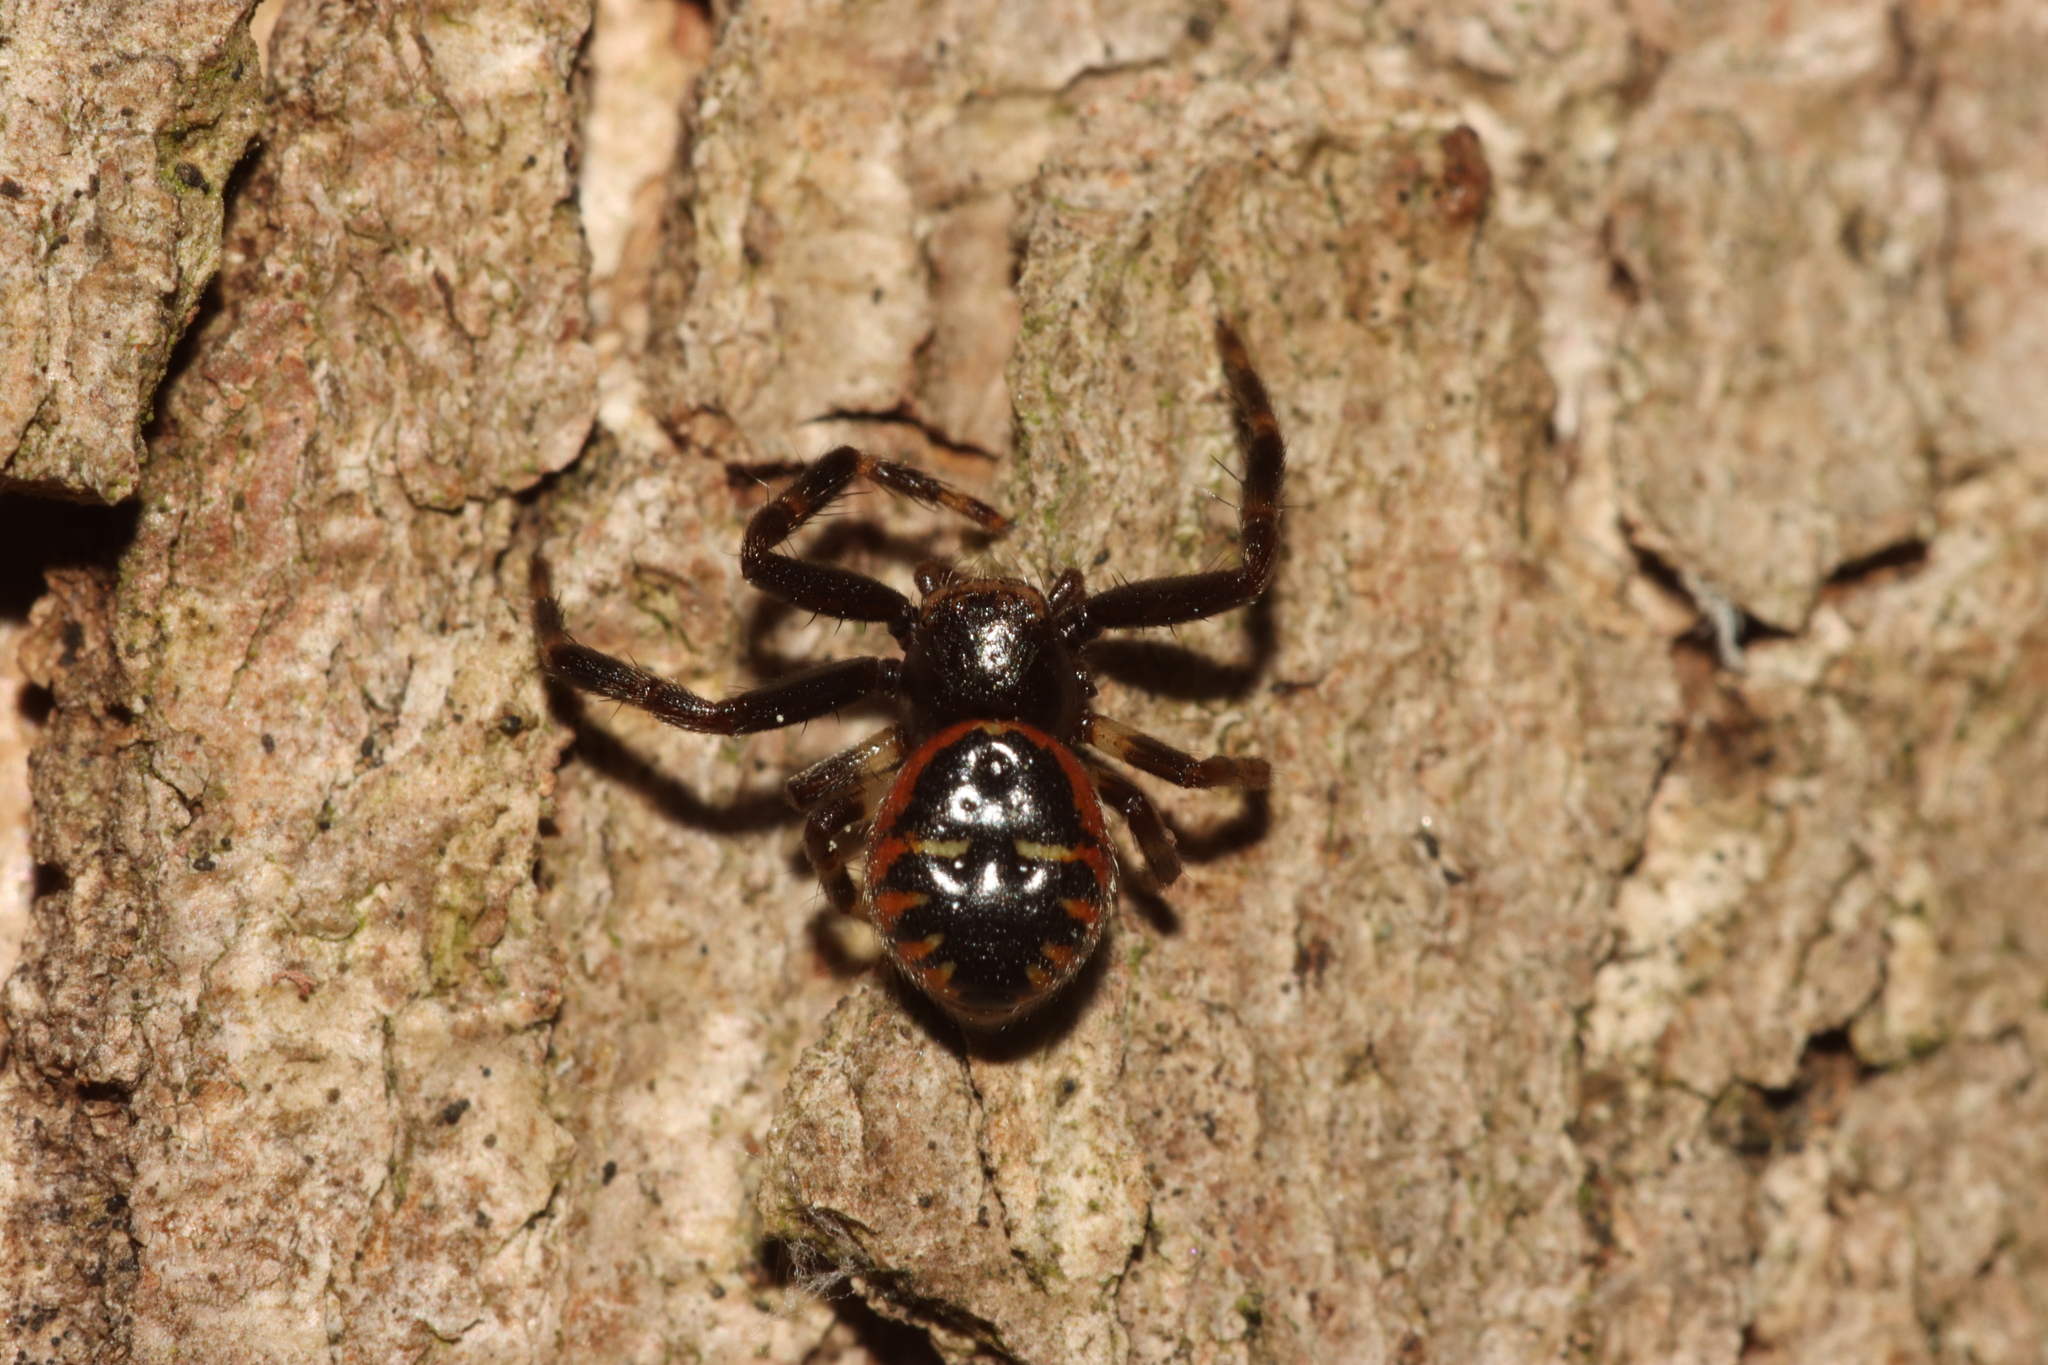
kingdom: Animalia
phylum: Arthropoda
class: Arachnida
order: Araneae
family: Thomisidae
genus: Synema
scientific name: Synema globosum
